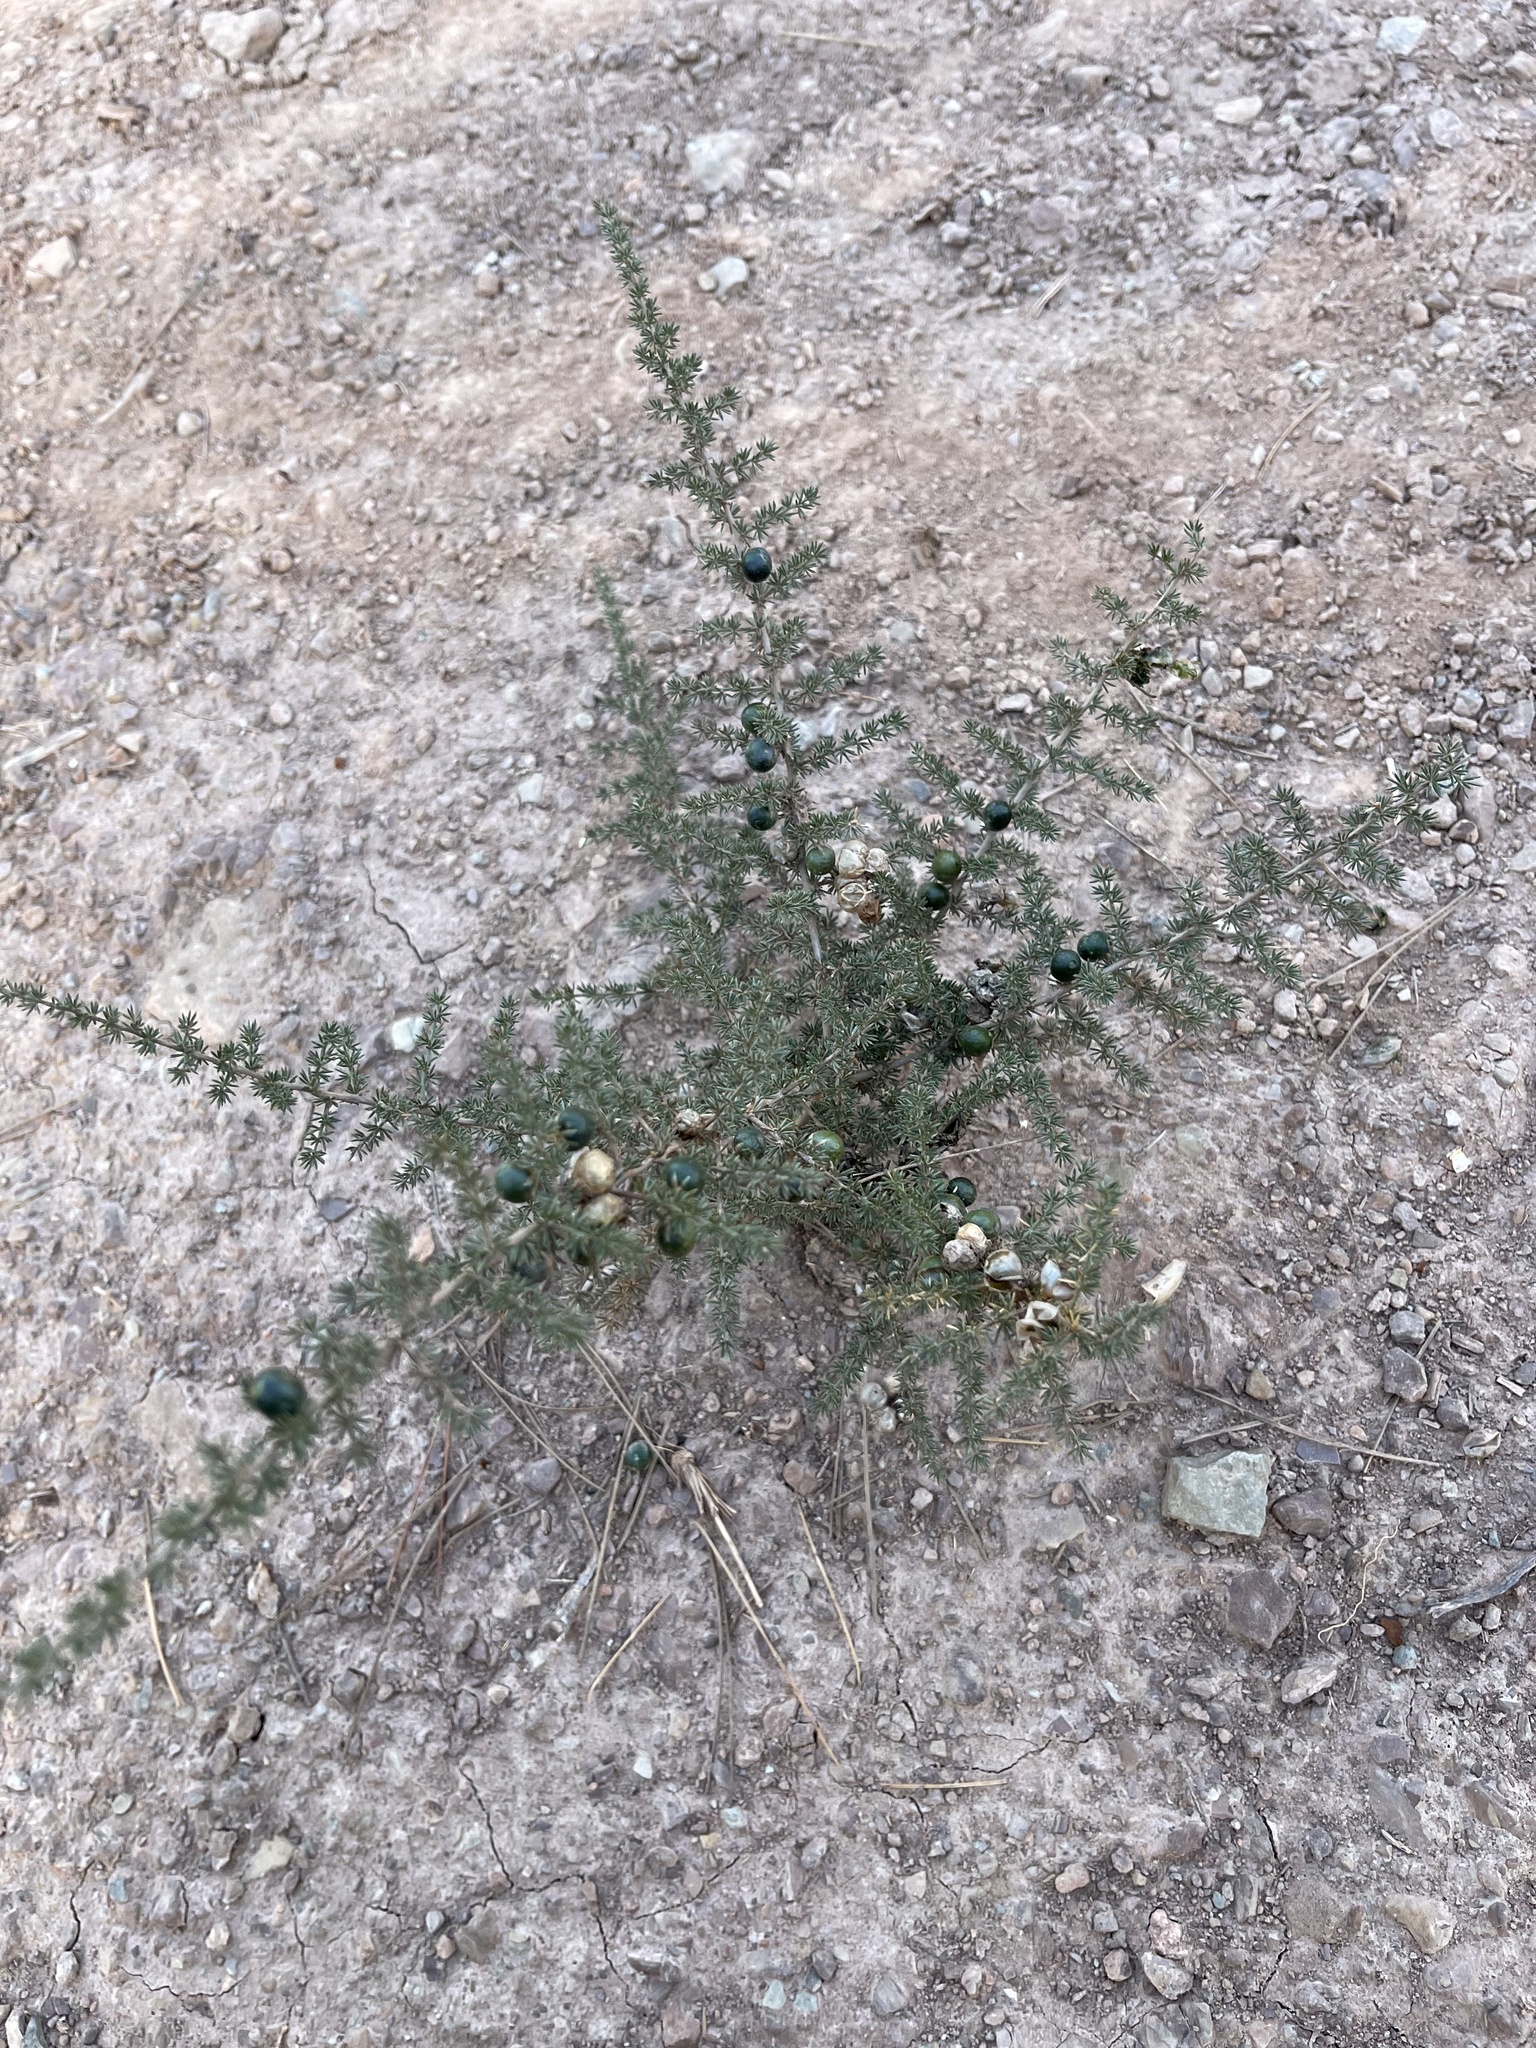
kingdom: Plantae
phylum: Tracheophyta
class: Liliopsida
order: Asparagales
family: Asparagaceae
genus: Asparagus
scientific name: Asparagus acutifolius
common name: Wild asparagus
